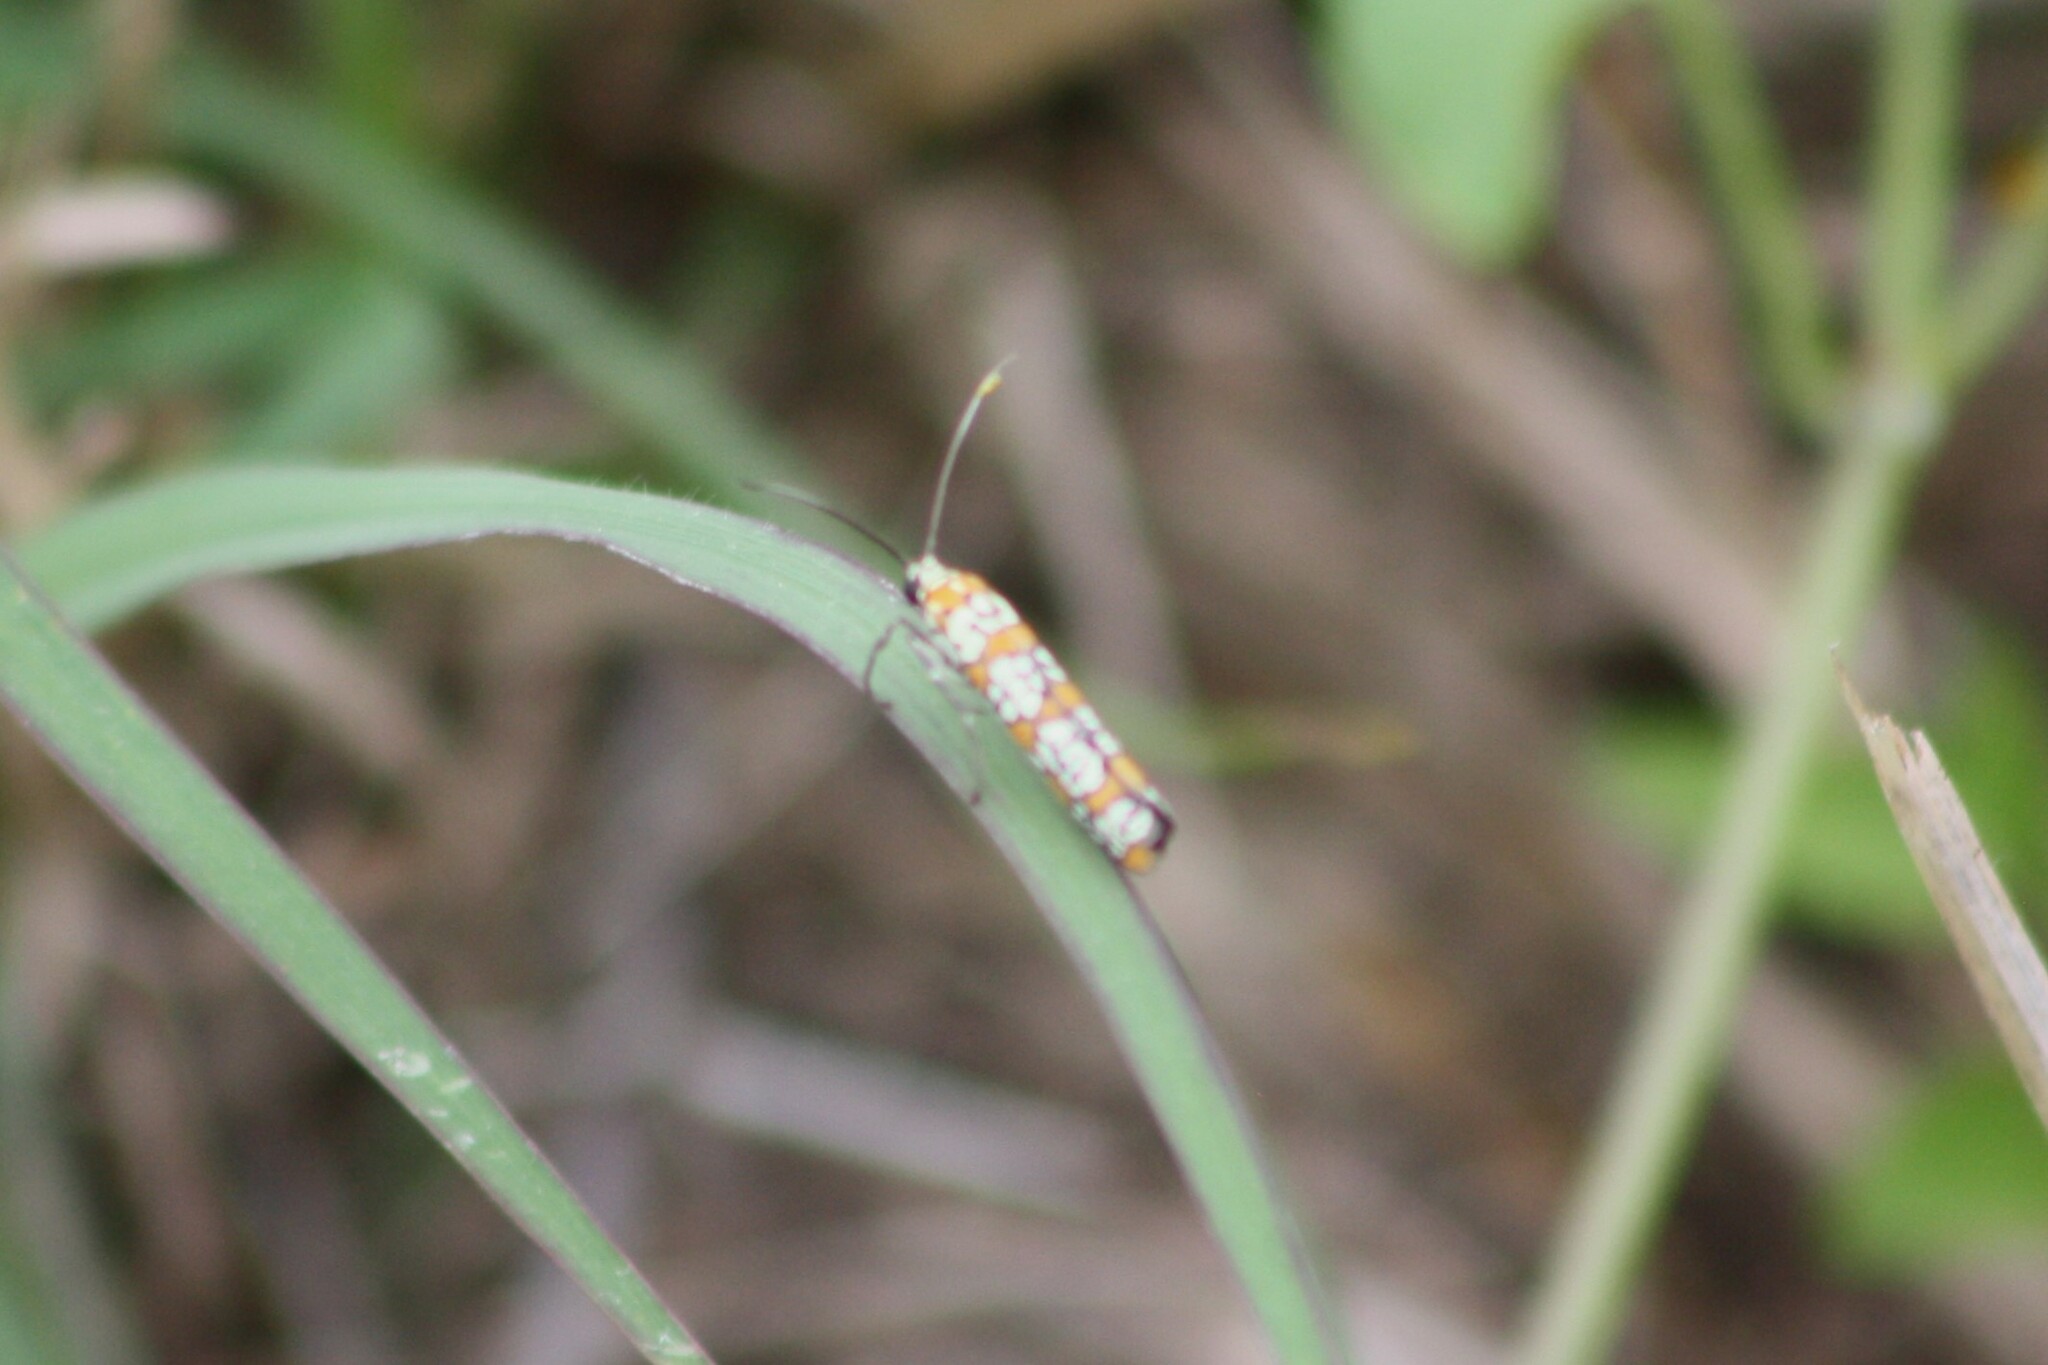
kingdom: Animalia
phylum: Arthropoda
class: Insecta
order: Lepidoptera
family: Attevidae
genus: Atteva
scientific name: Atteva punctella
